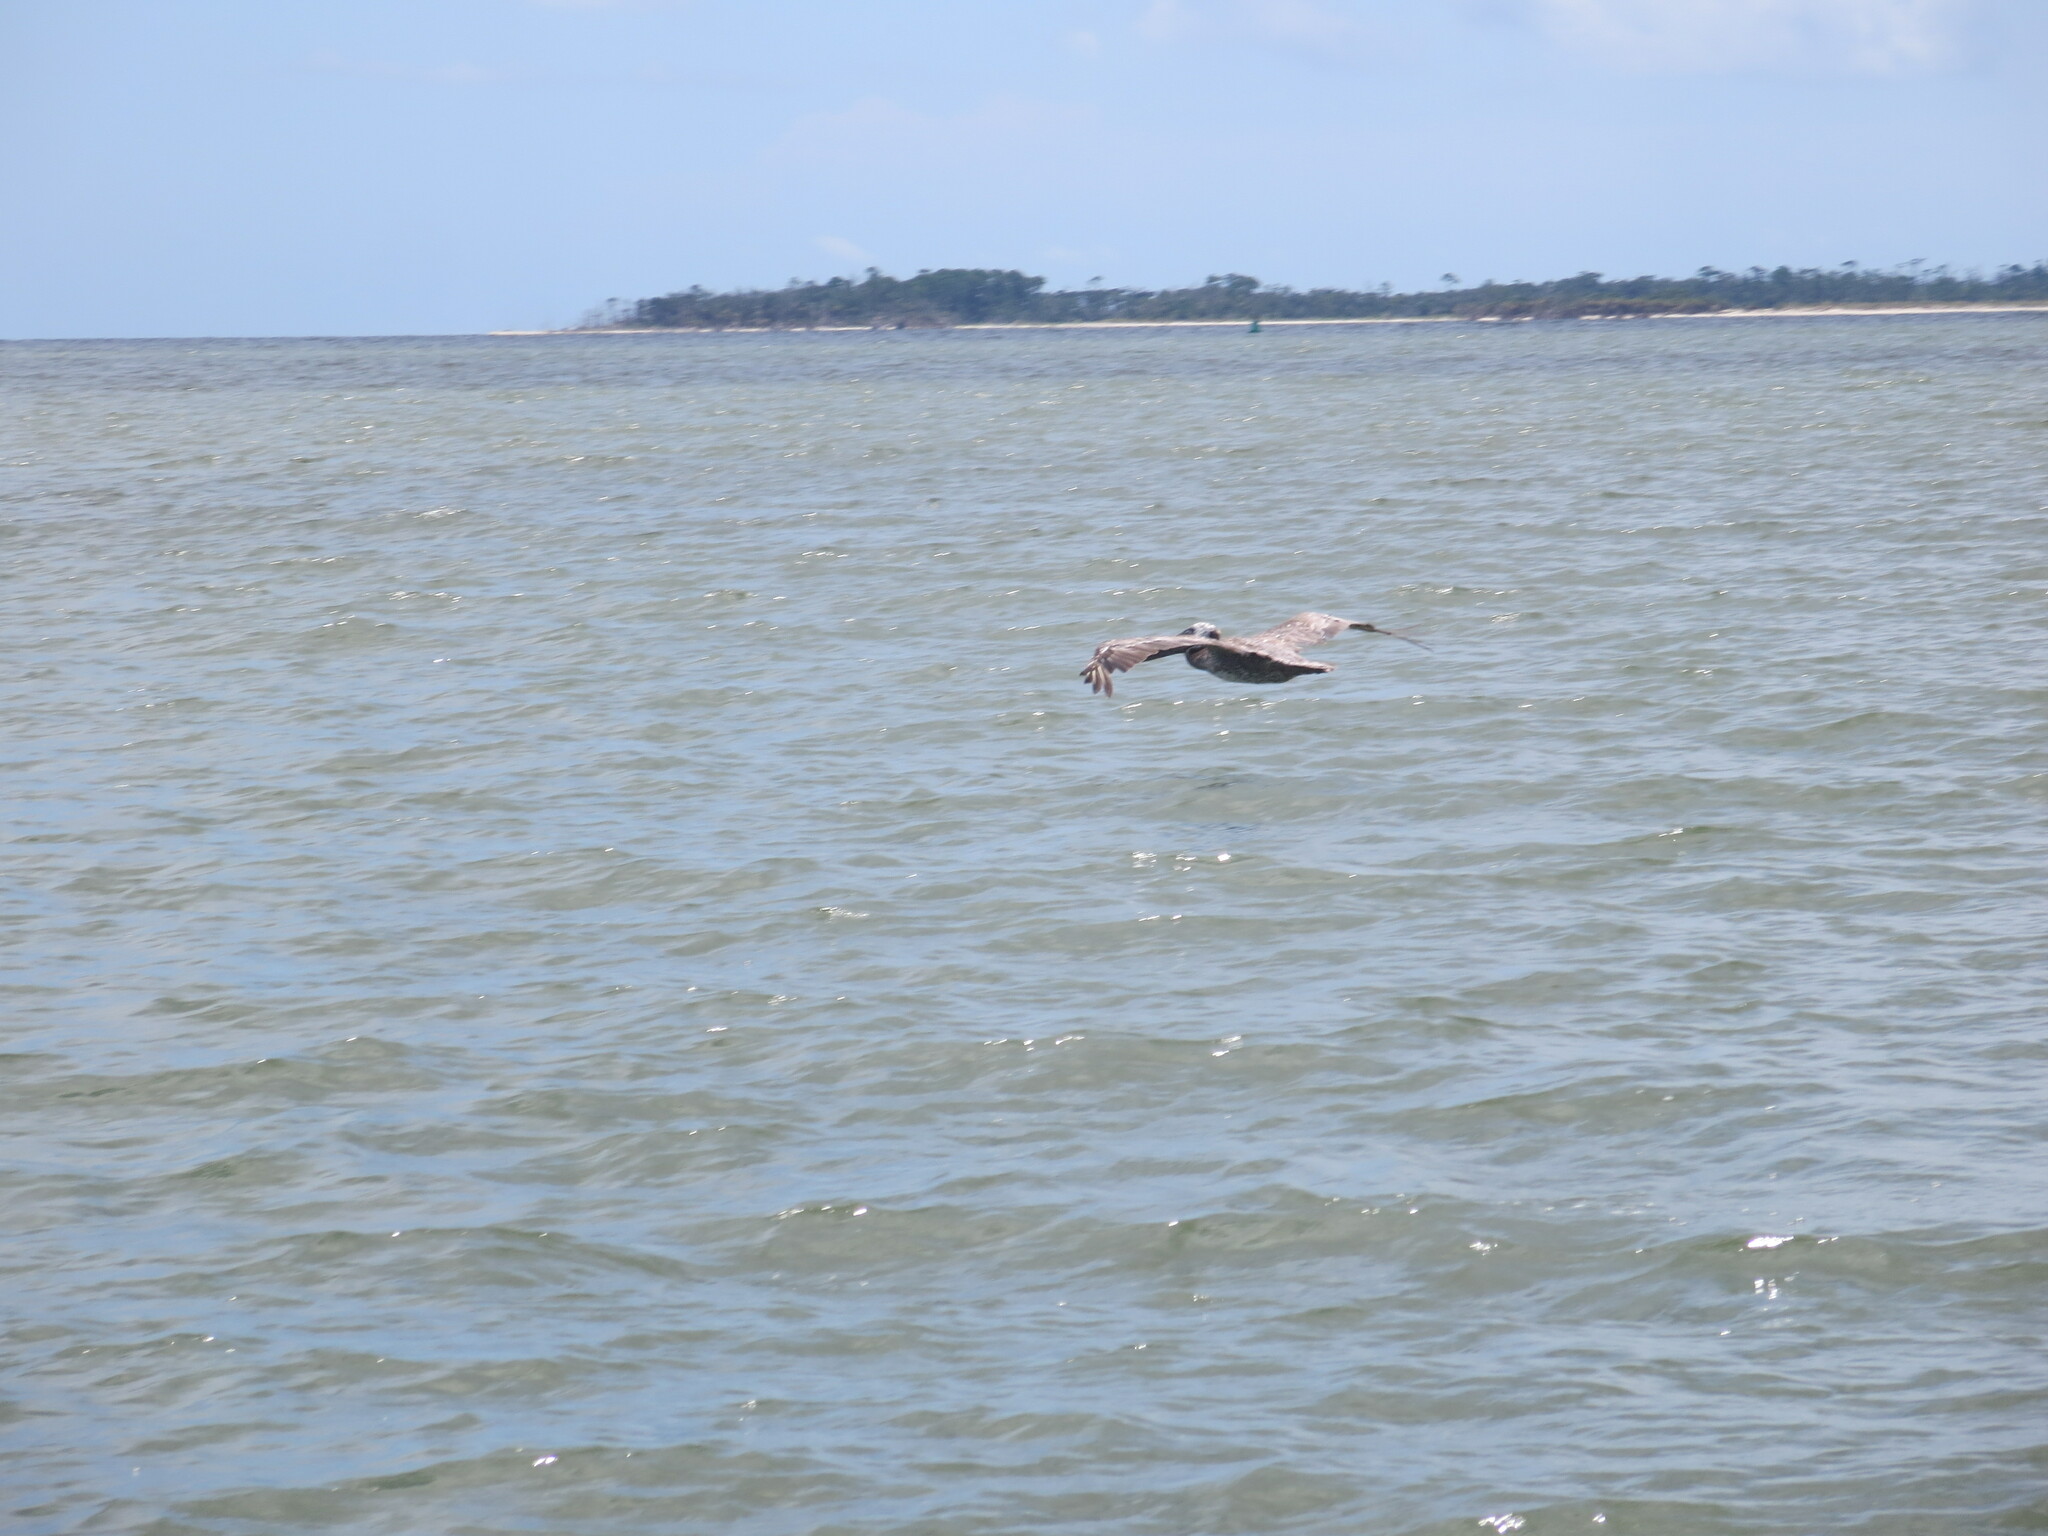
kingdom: Animalia
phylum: Chordata
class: Aves
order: Pelecaniformes
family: Pelecanidae
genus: Pelecanus
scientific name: Pelecanus occidentalis
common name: Brown pelican
